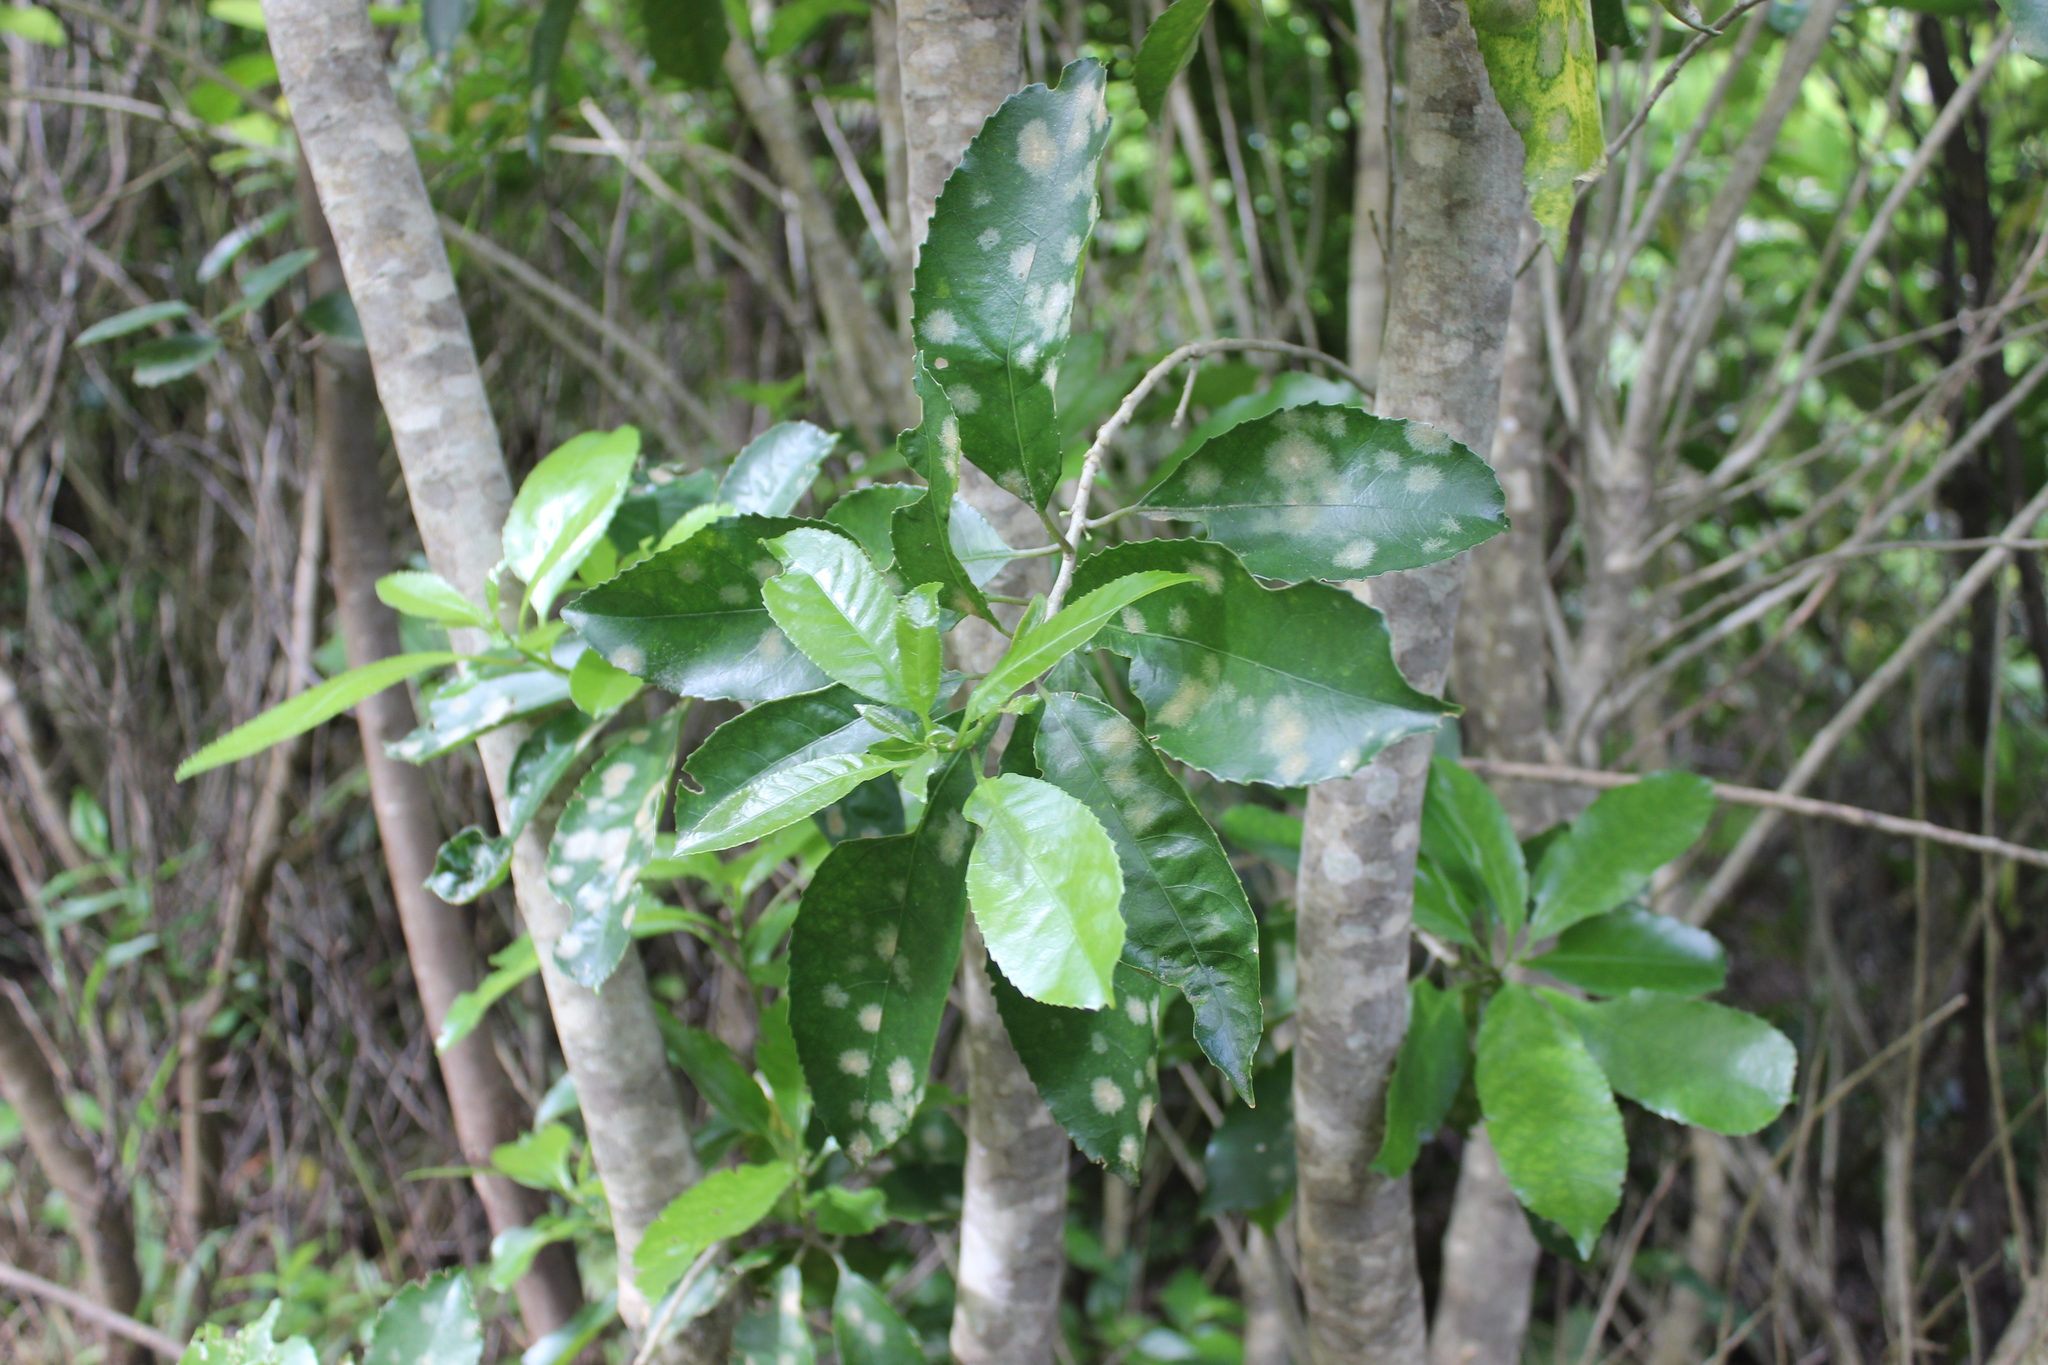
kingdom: Plantae
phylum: Tracheophyta
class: Magnoliopsida
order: Malpighiales
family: Violaceae
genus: Melicytus
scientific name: Melicytus ramiflorus
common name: Mahoe
